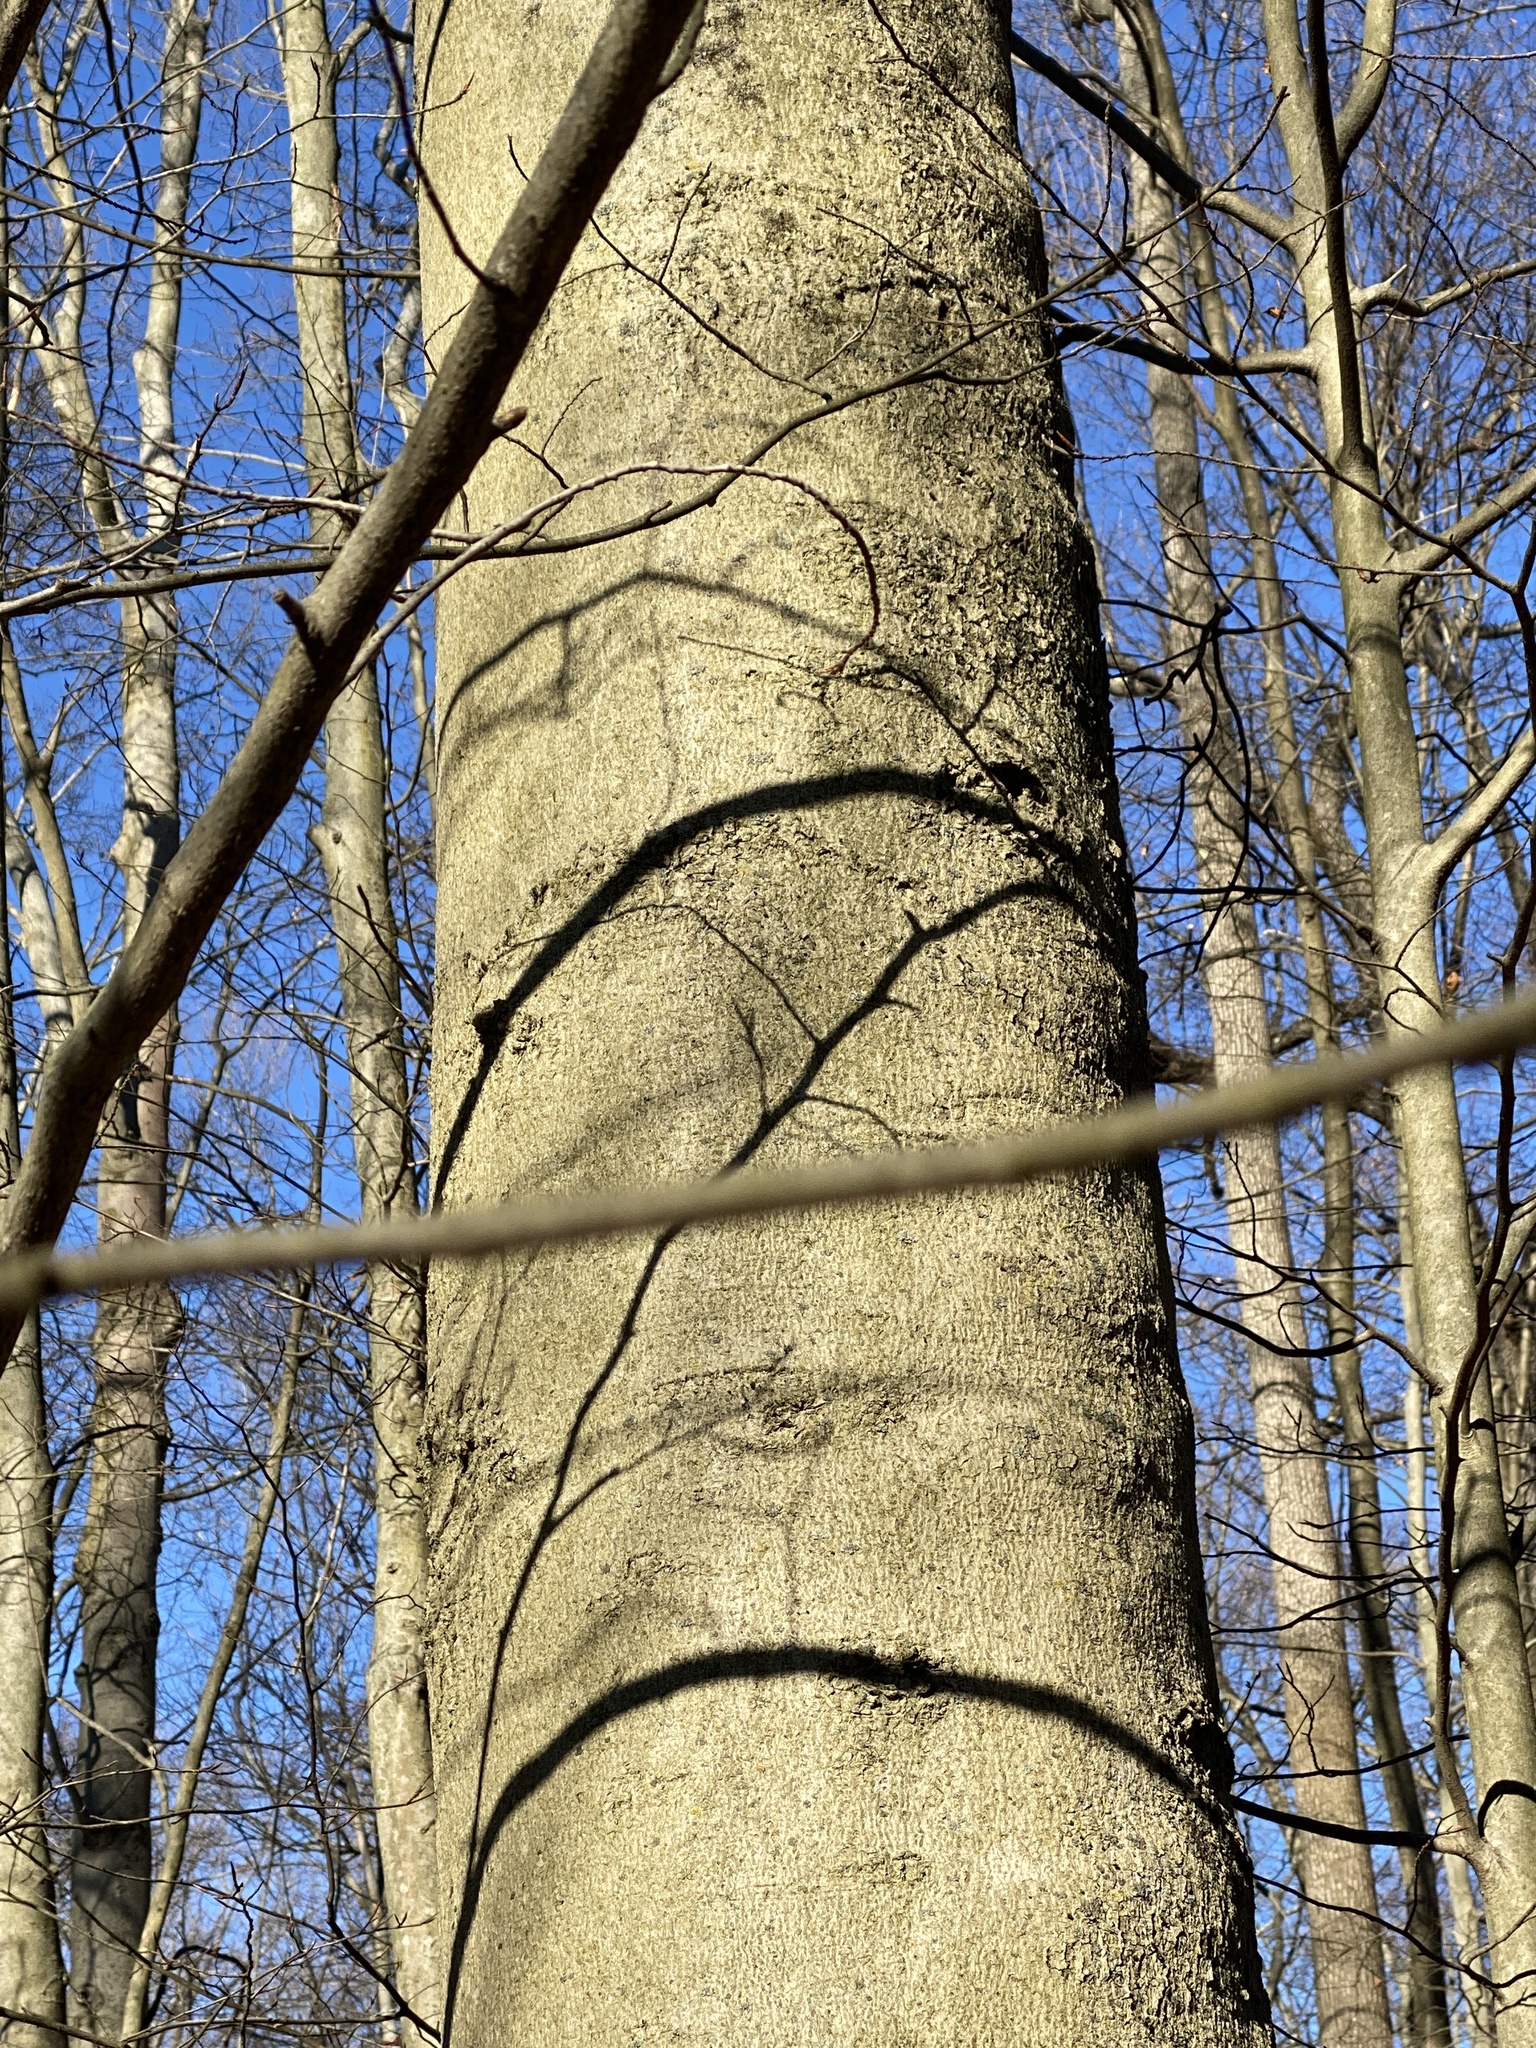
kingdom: Plantae
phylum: Tracheophyta
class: Magnoliopsida
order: Fagales
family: Fagaceae
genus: Fagus
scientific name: Fagus grandifolia
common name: American beech
